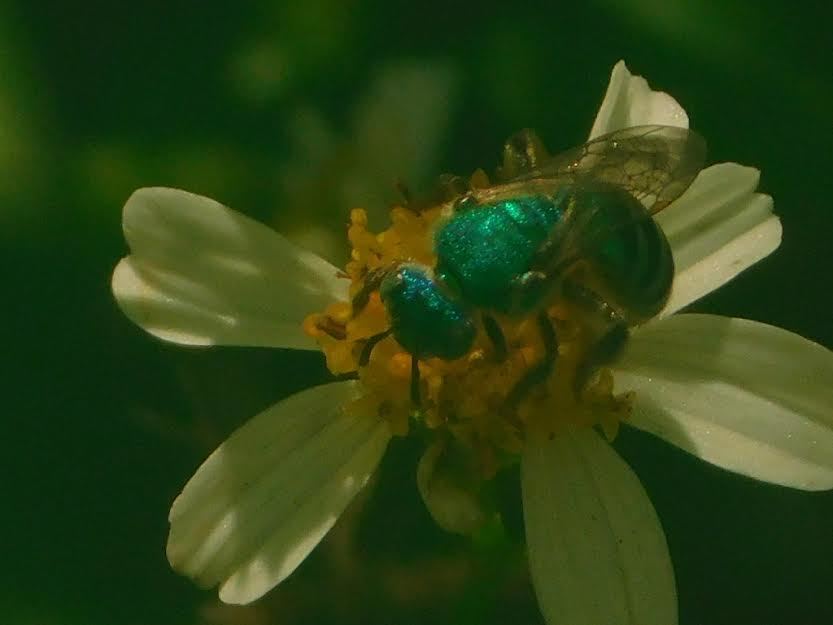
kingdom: Animalia
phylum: Arthropoda
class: Insecta
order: Hymenoptera
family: Halictidae
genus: Agapostemon
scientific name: Agapostemon splendens
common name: Brown-winged striped sweat bee
